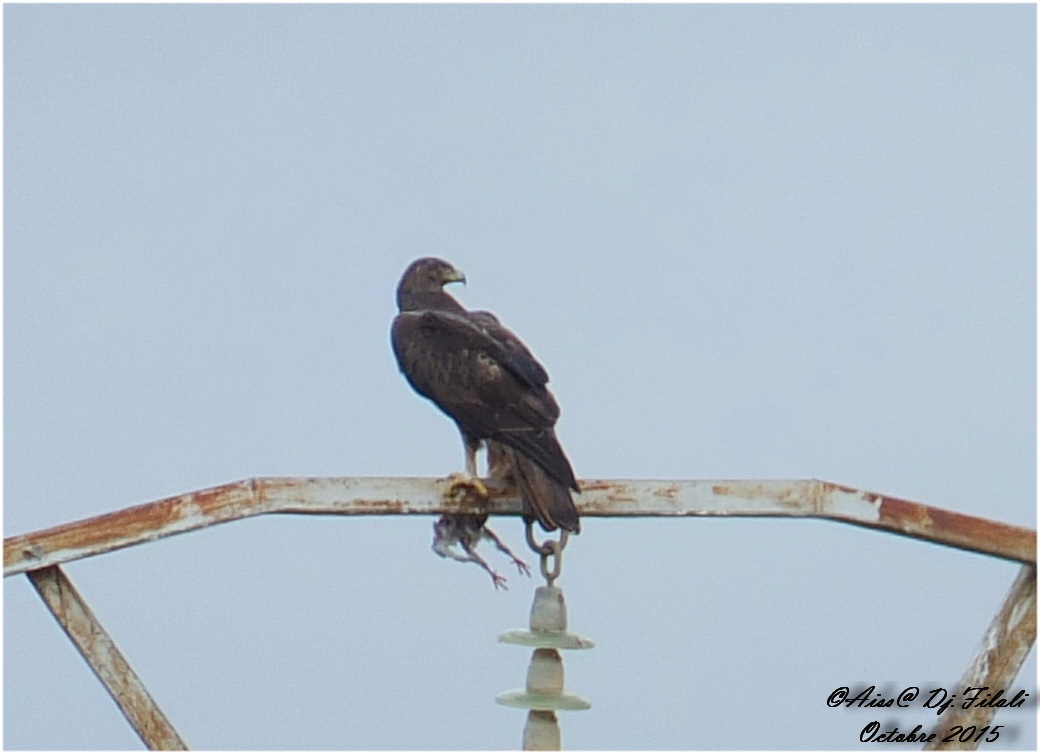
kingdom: Animalia
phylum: Chordata
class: Aves
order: Accipitriformes
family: Accipitridae
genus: Aquila
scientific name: Aquila fasciata
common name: Bonelli's eagle
